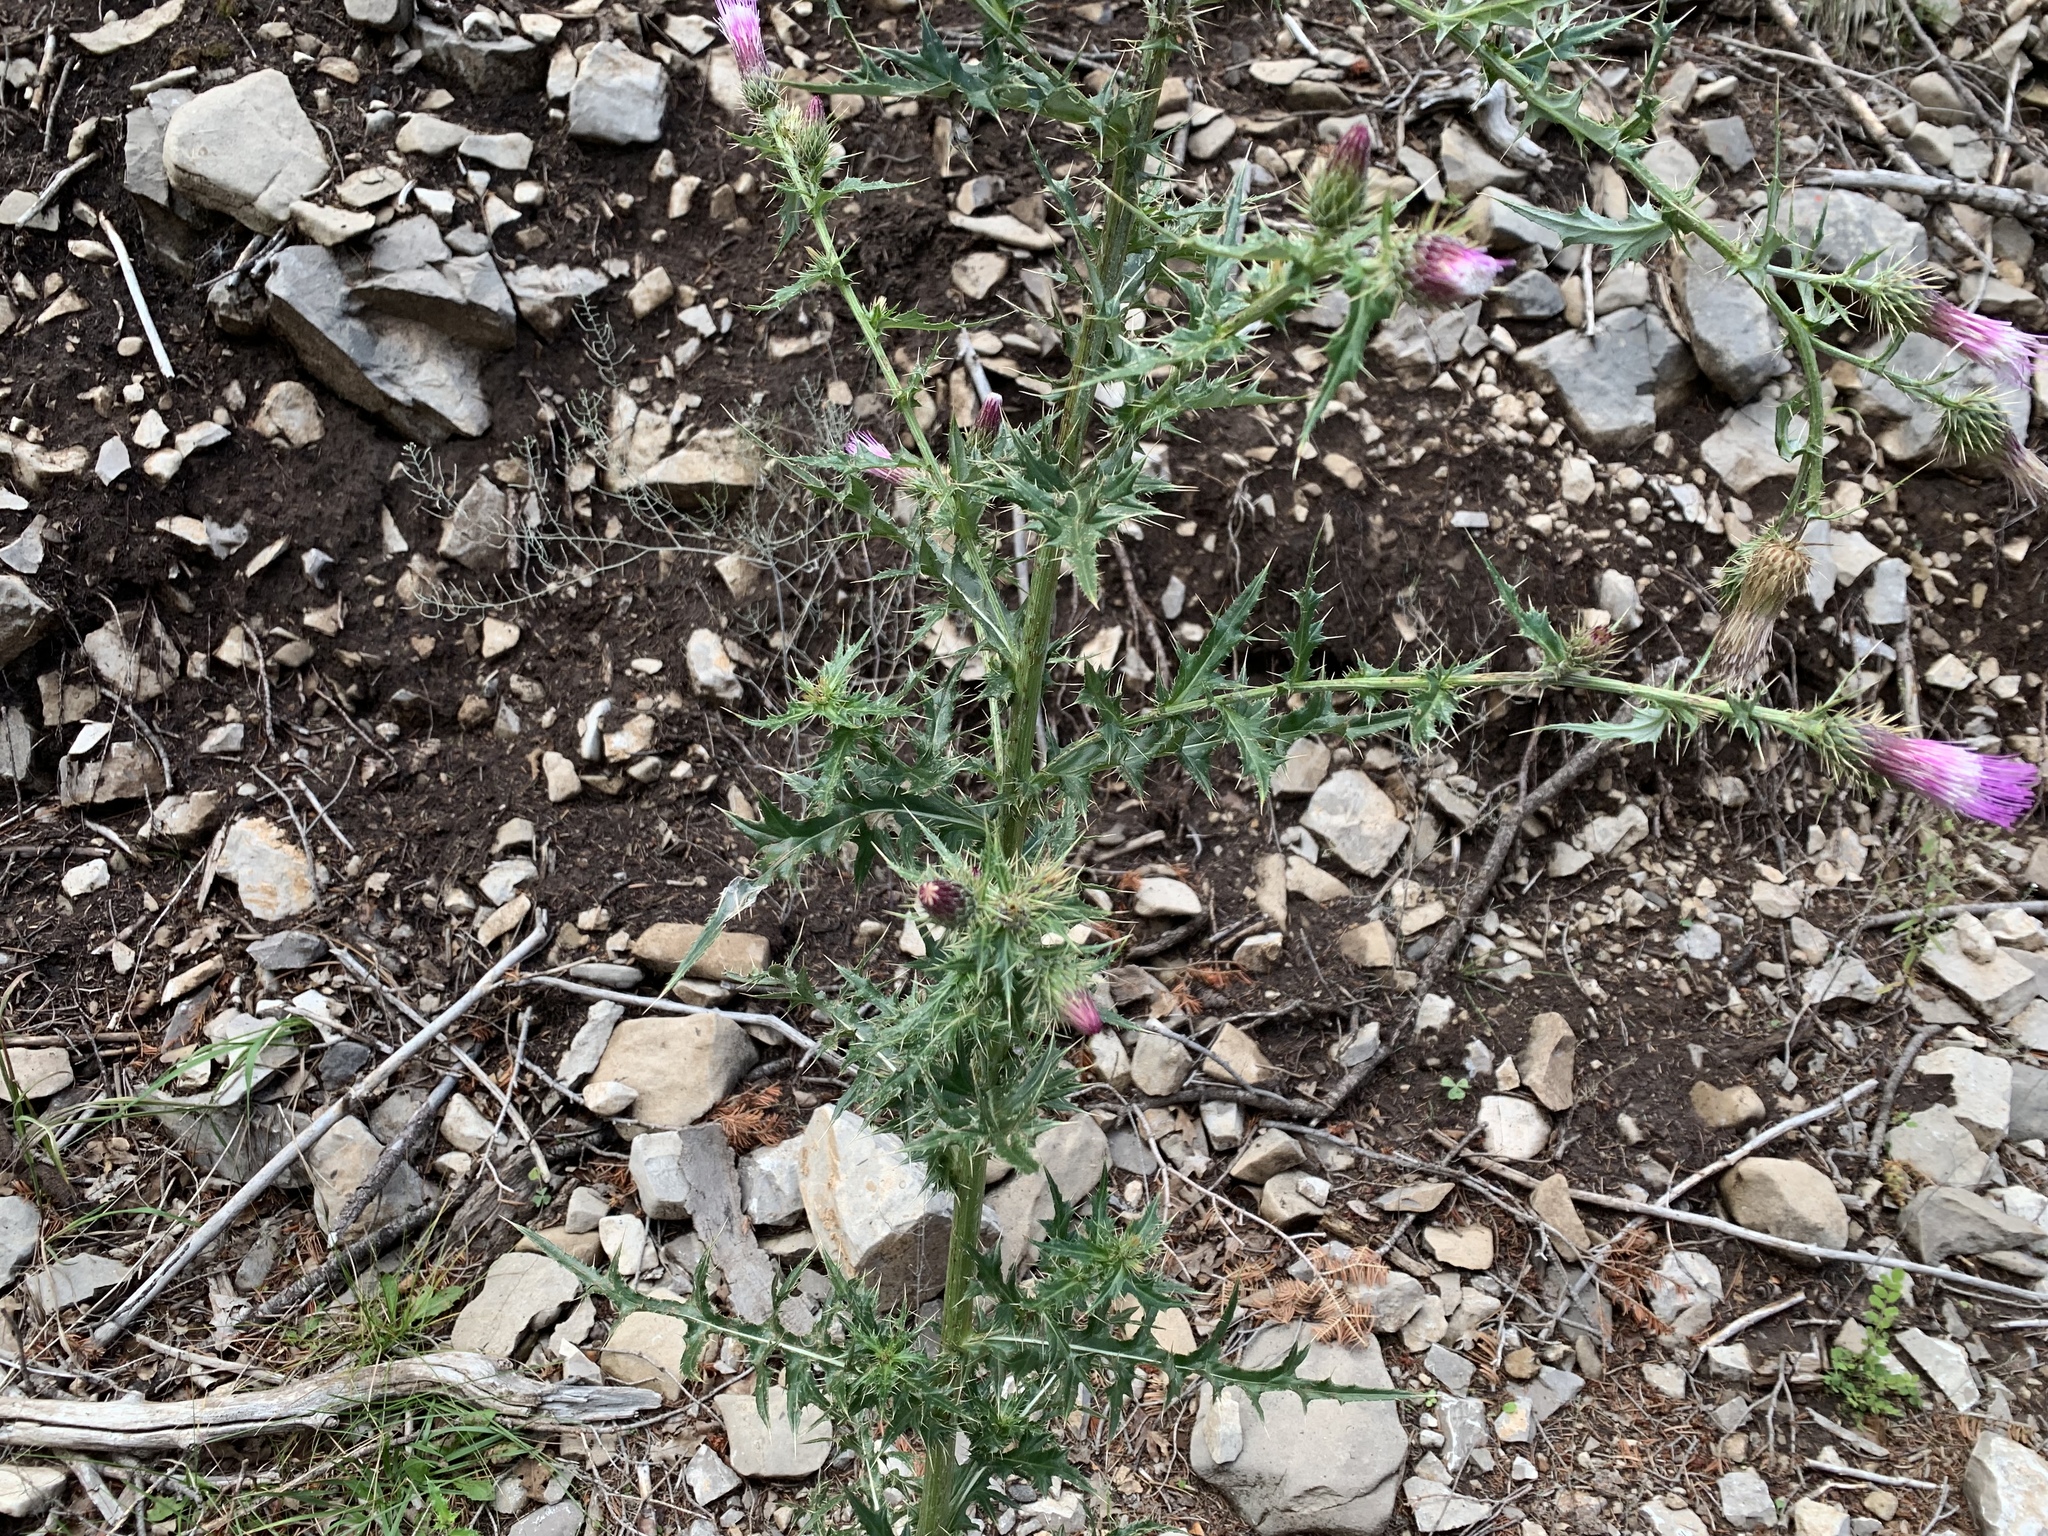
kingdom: Plantae
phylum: Tracheophyta
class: Magnoliopsida
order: Asterales
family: Asteraceae
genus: Cirsium
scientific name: Cirsium arizonicum
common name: Arizona thistle
